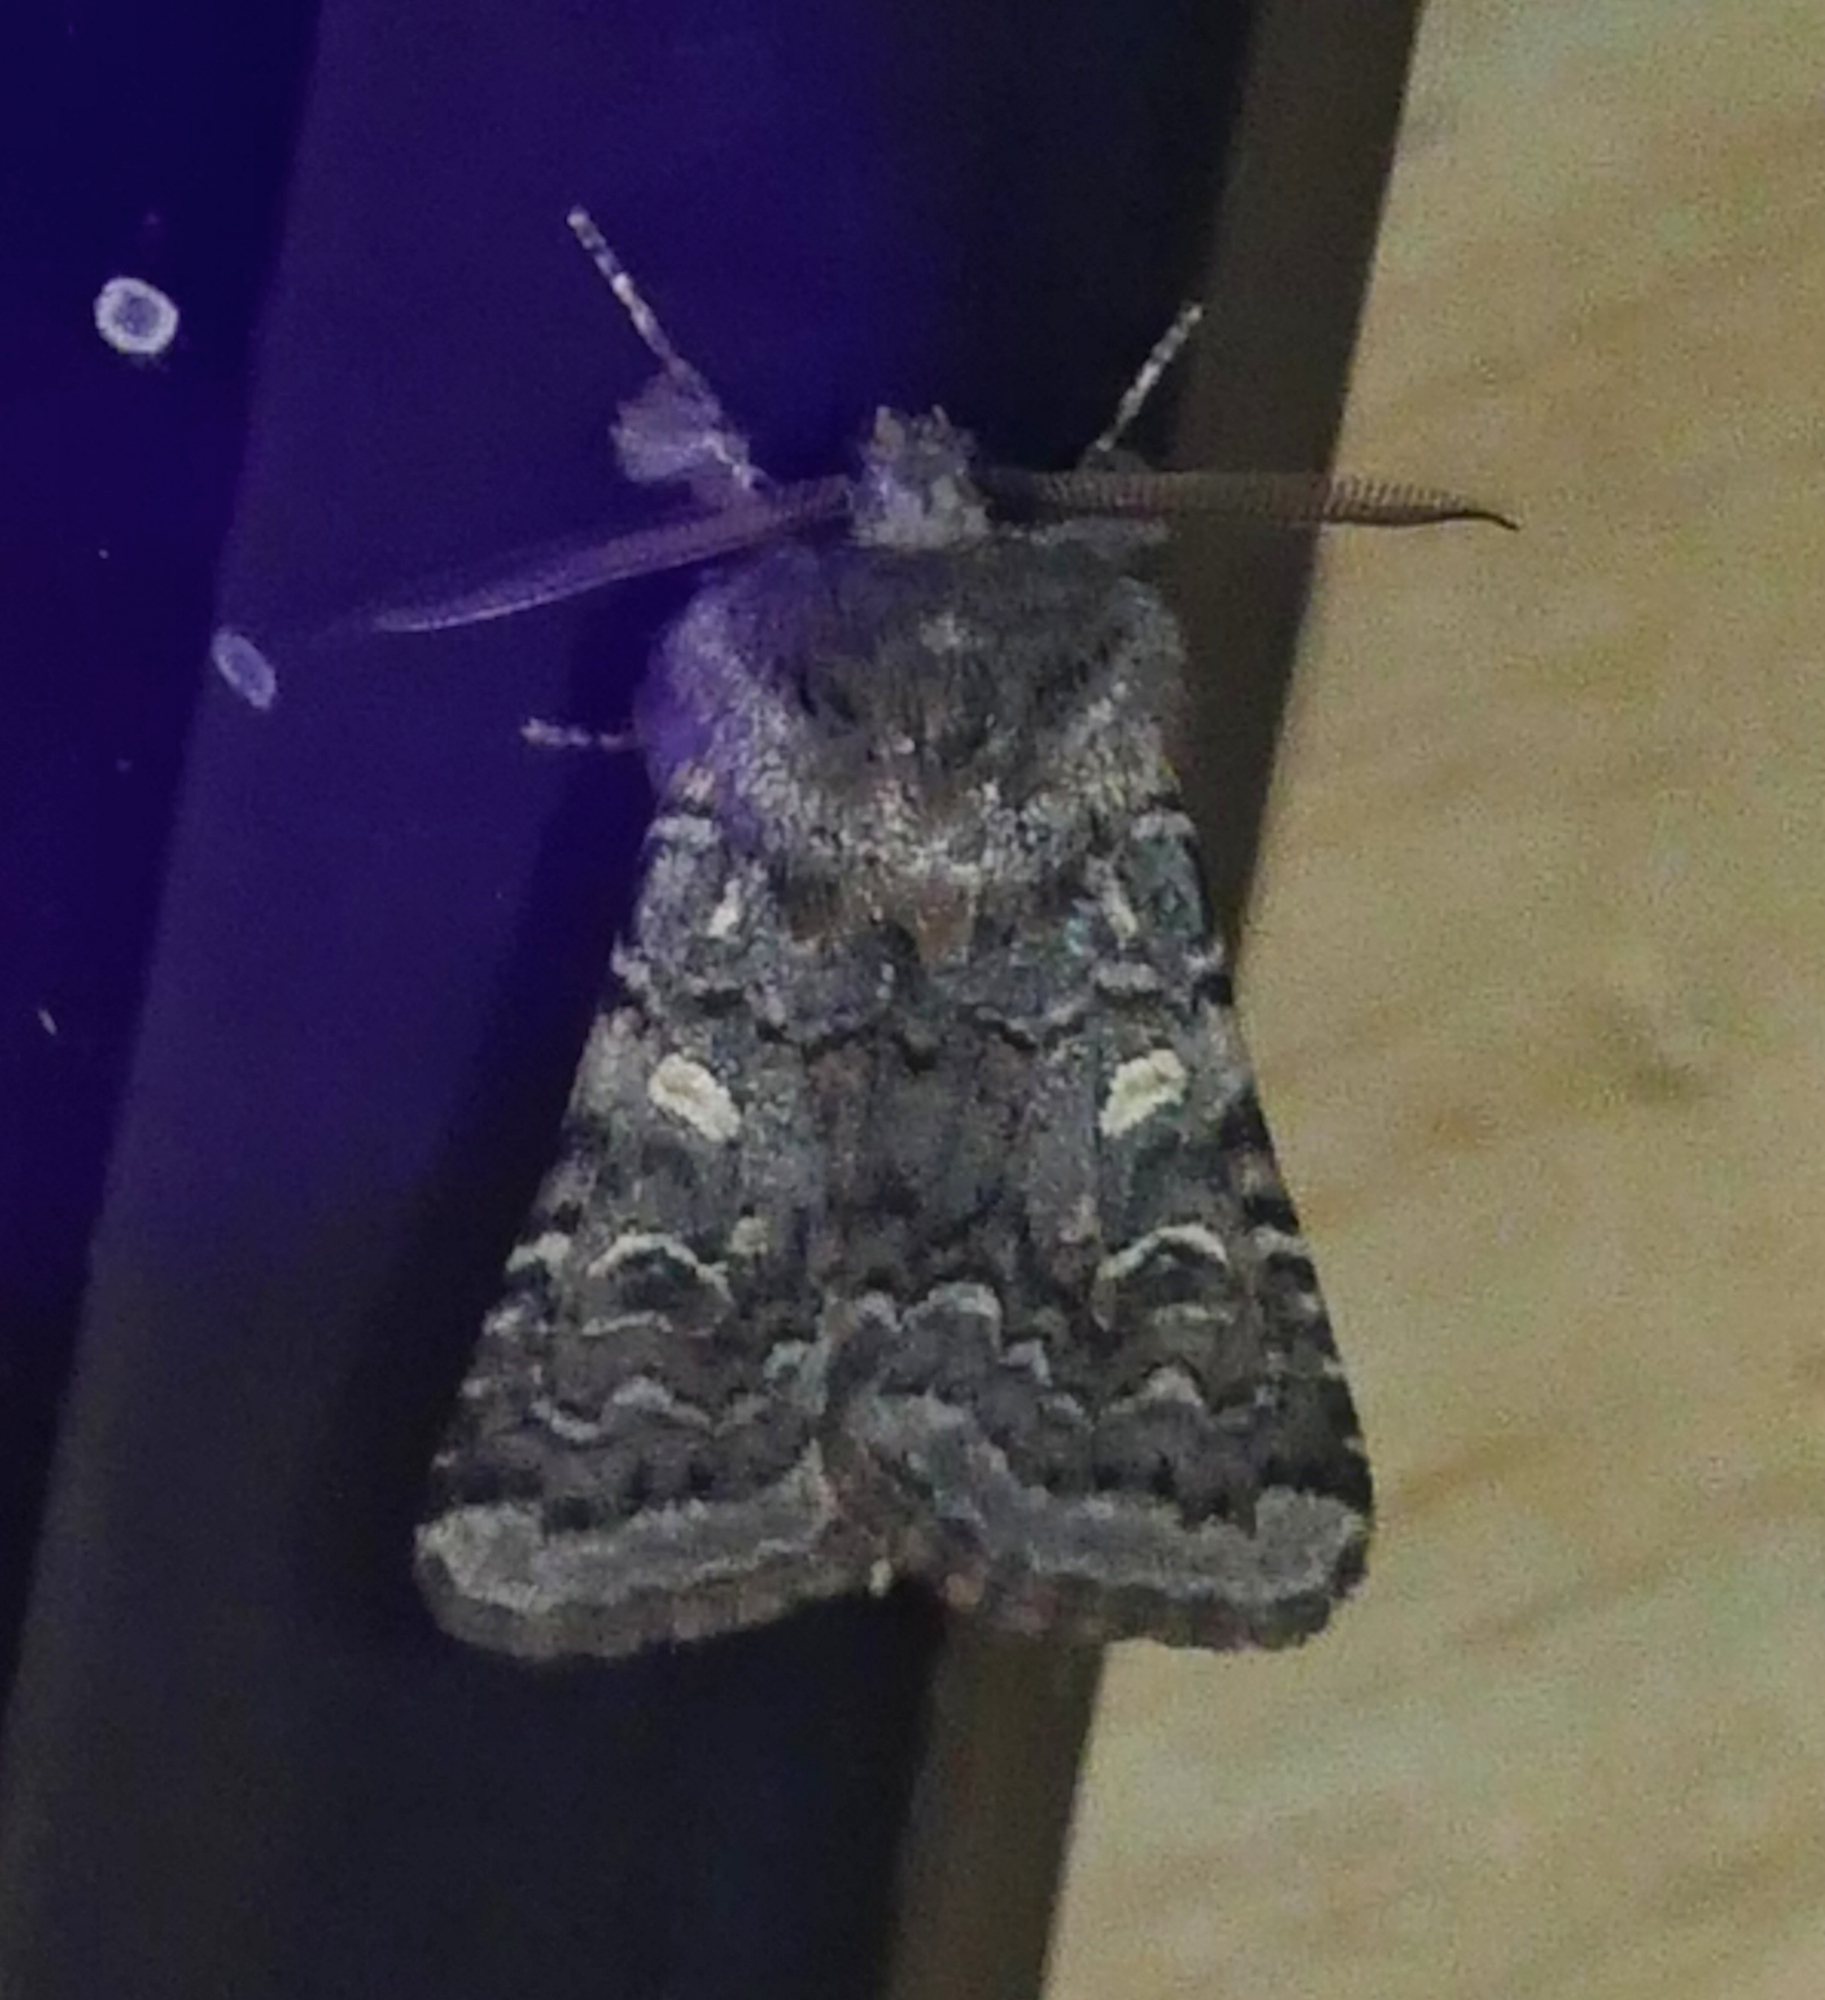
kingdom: Animalia
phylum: Arthropoda
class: Insecta
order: Lepidoptera
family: Noctuidae
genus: Spodoptera
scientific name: Spodoptera hipparis
